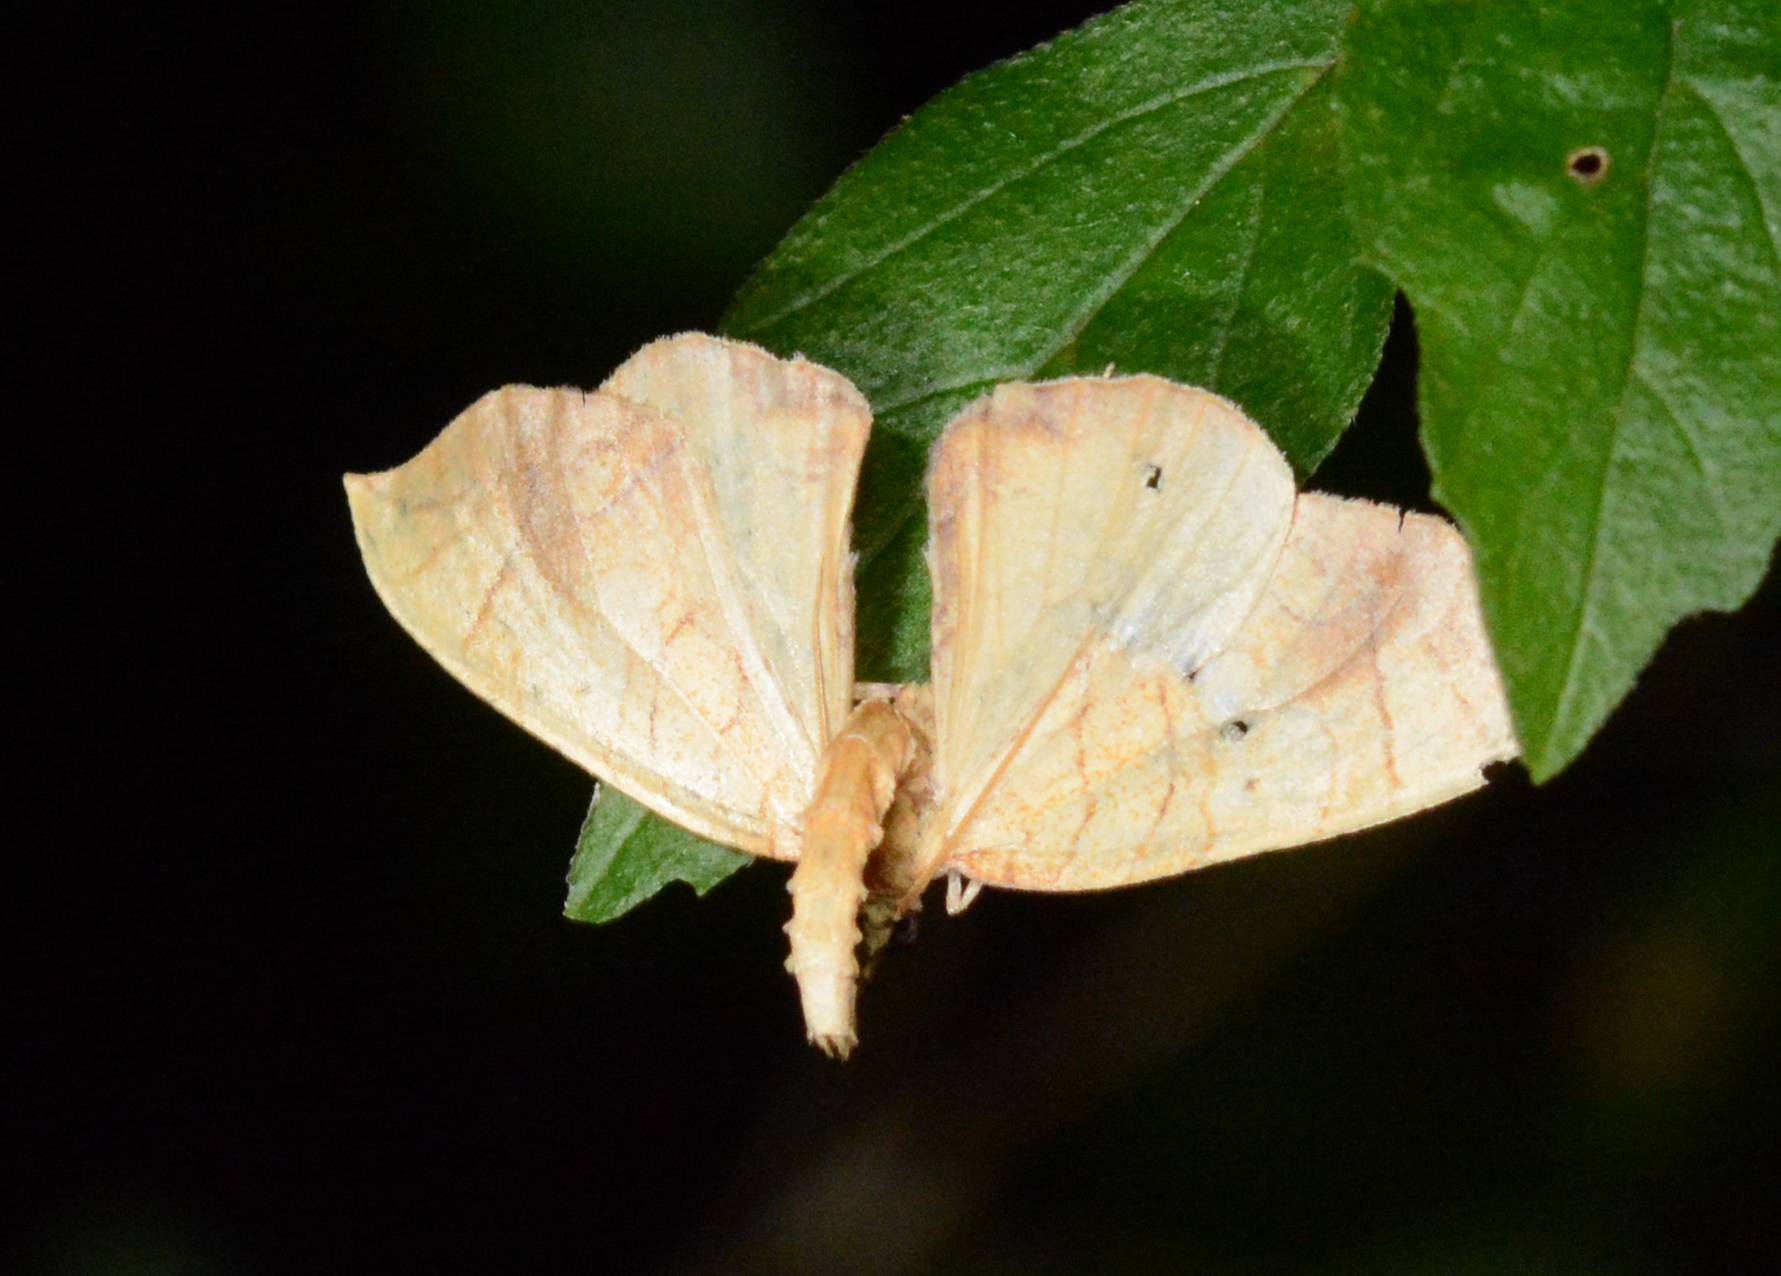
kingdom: Animalia
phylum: Arthropoda
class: Insecta
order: Lepidoptera
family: Geometridae
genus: Eulithis
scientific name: Eulithis
